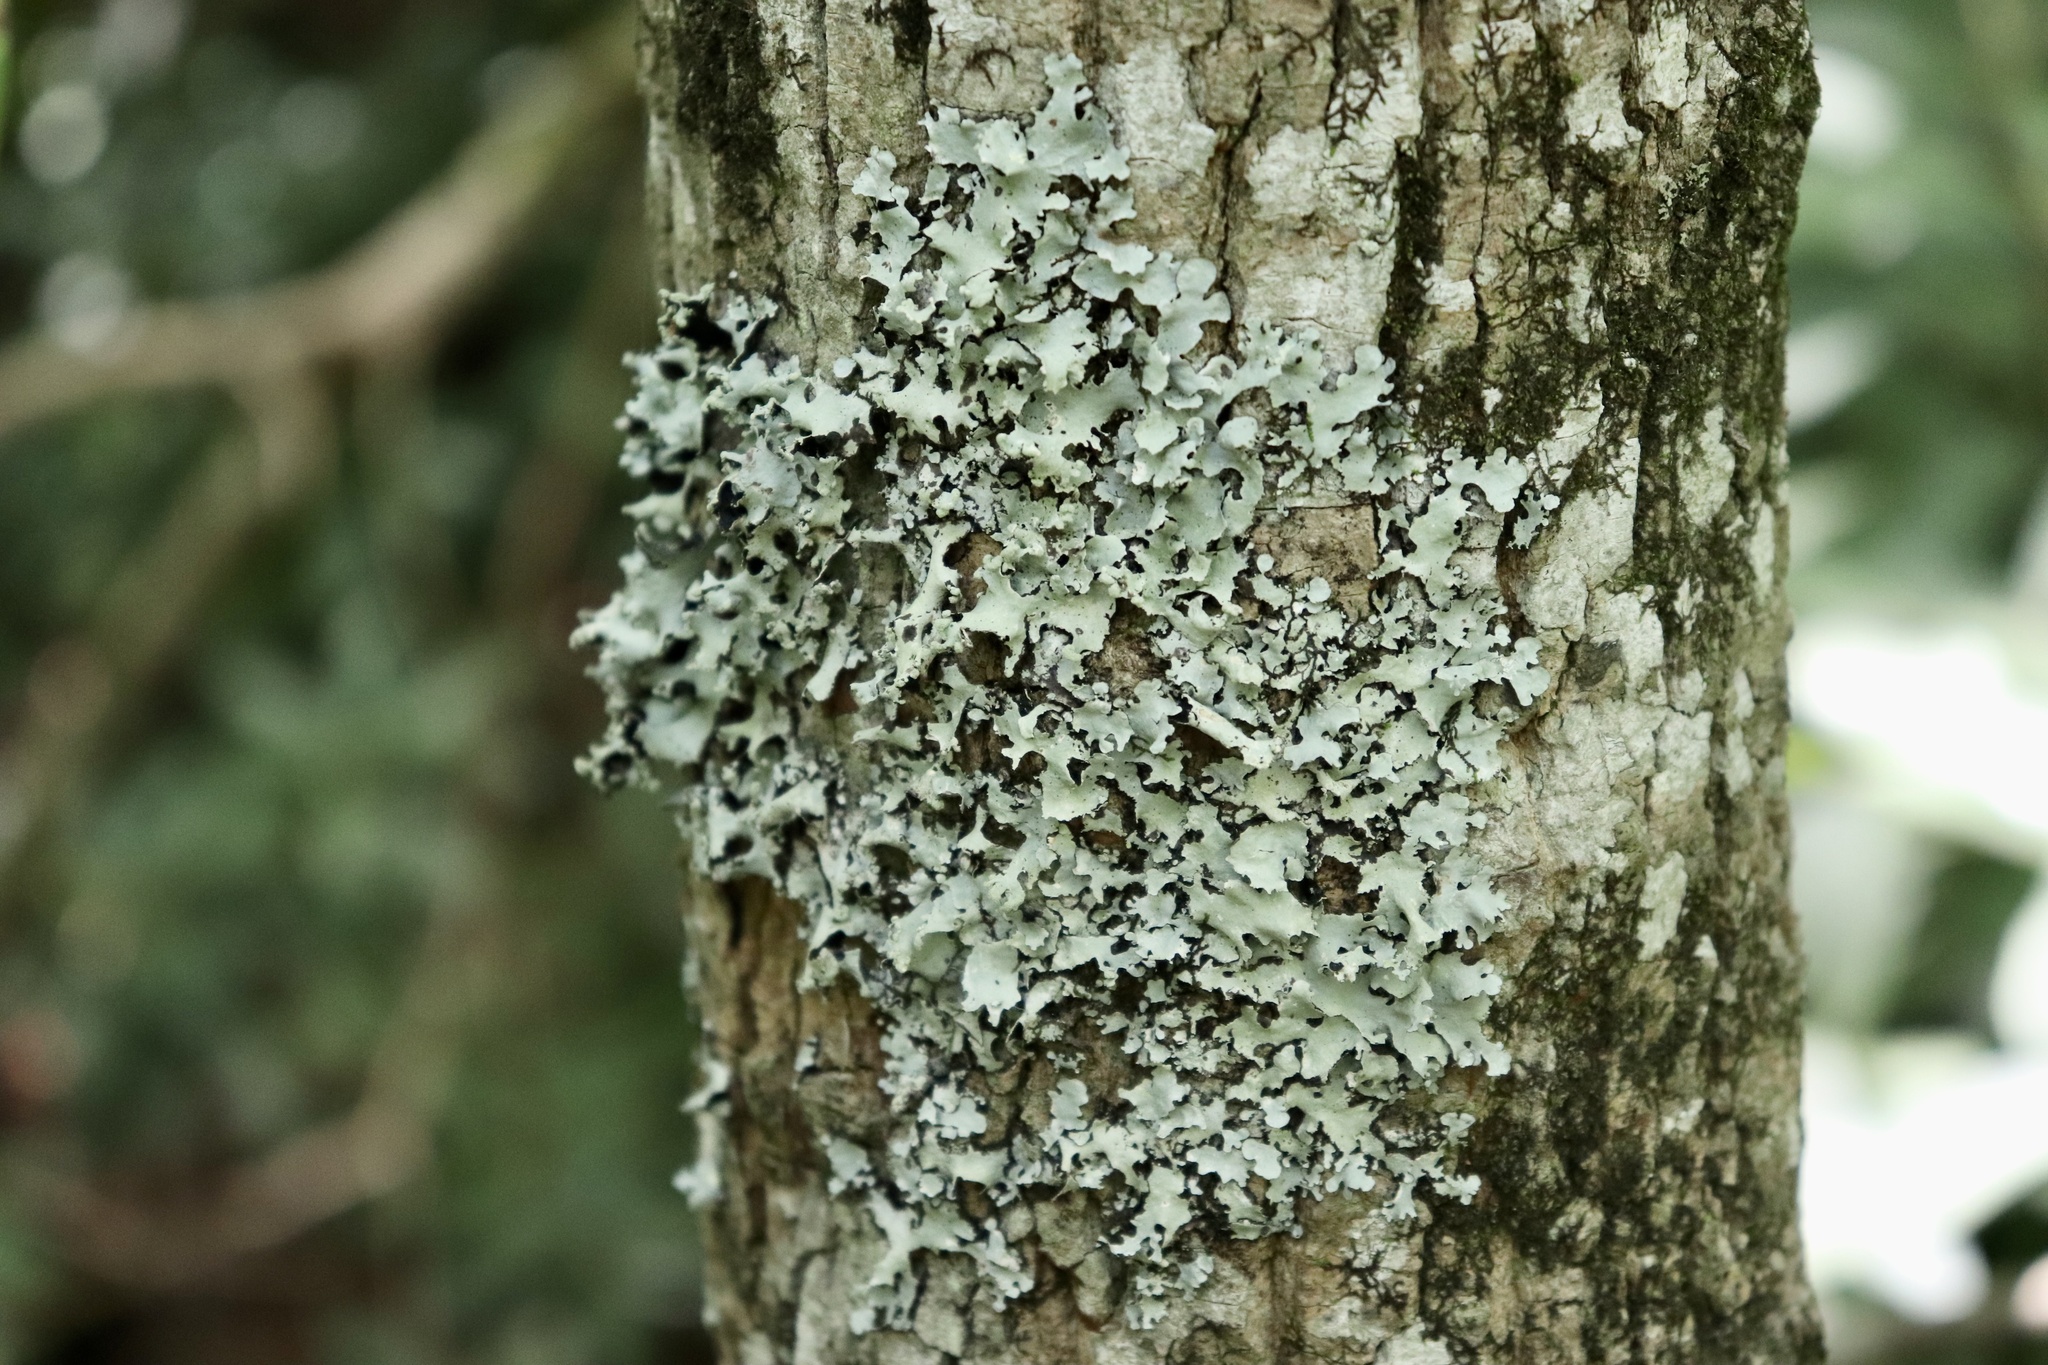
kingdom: Fungi
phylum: Ascomycota
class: Lecanoromycetes
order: Lecanorales
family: Parmeliaceae
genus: Parmotrema
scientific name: Parmotrema reticulatum
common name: Black sheet lichen
